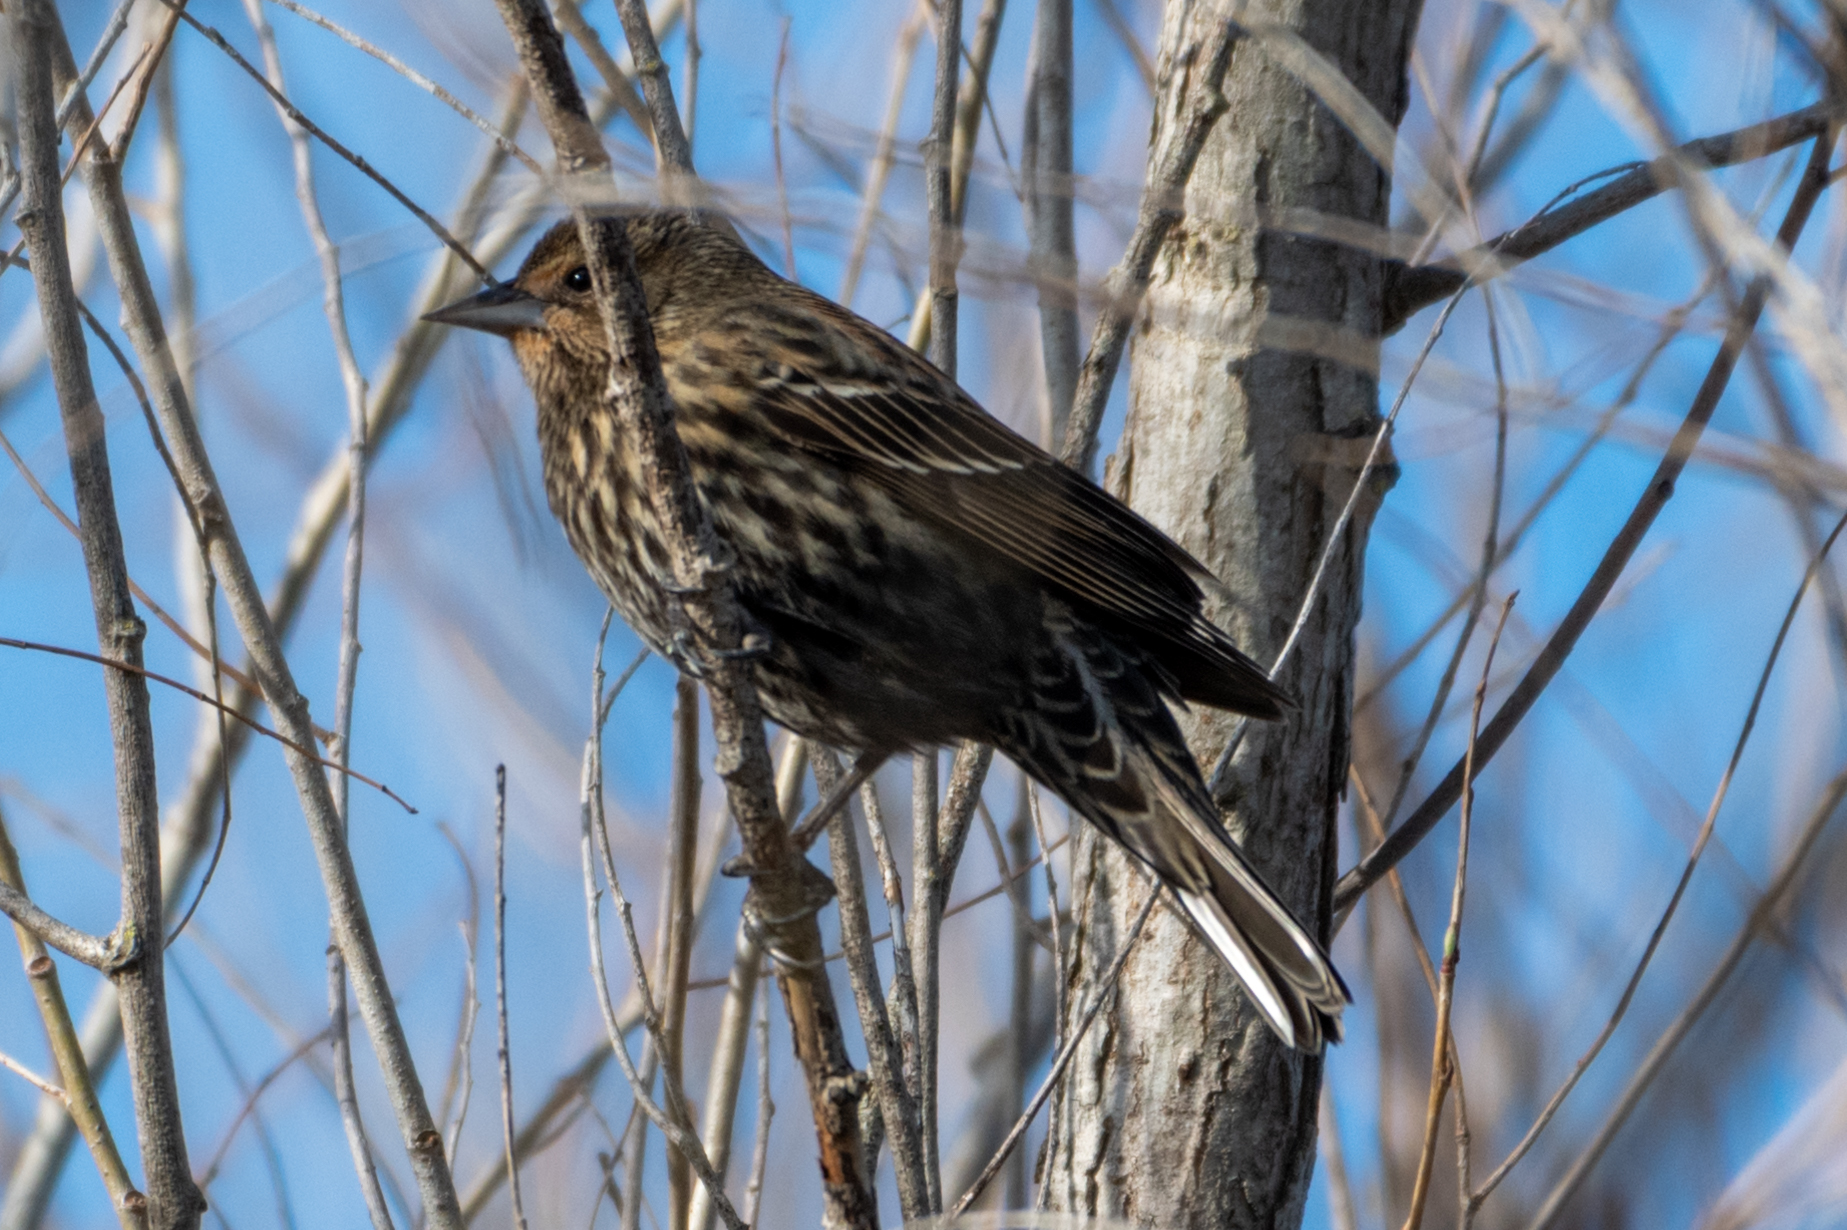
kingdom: Animalia
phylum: Chordata
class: Aves
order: Passeriformes
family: Icteridae
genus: Agelaius
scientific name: Agelaius phoeniceus
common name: Red-winged blackbird
